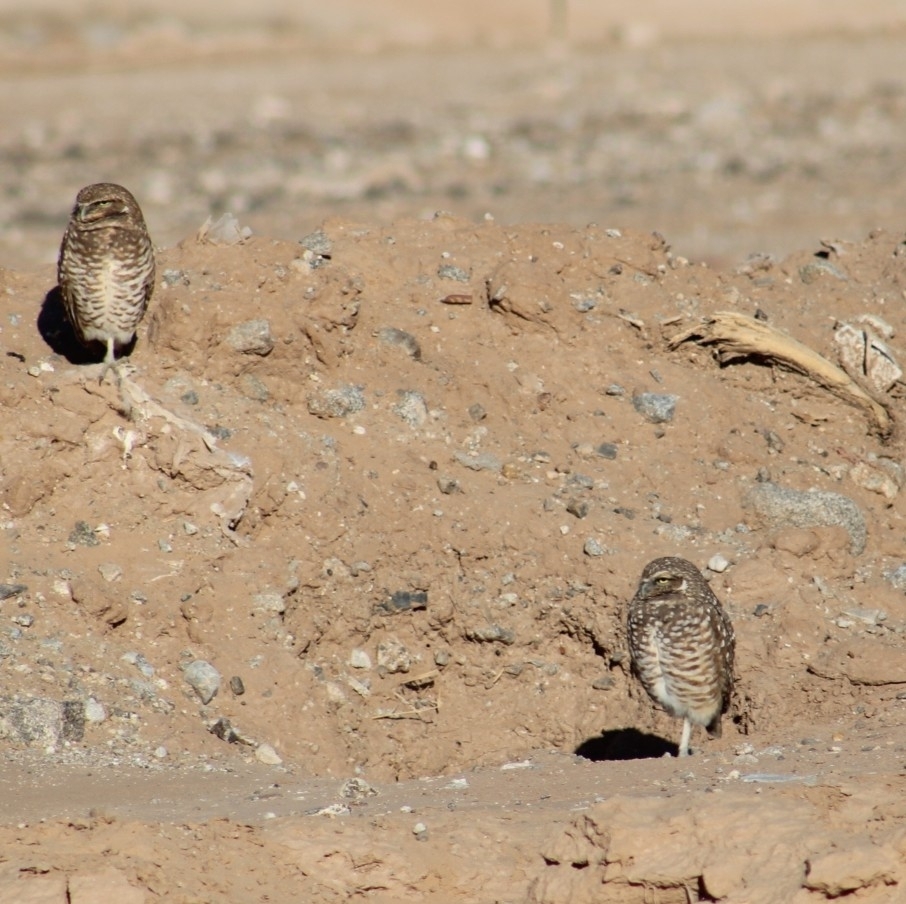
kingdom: Animalia
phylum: Chordata
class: Aves
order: Strigiformes
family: Strigidae
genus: Athene
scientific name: Athene cunicularia
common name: Burrowing owl
